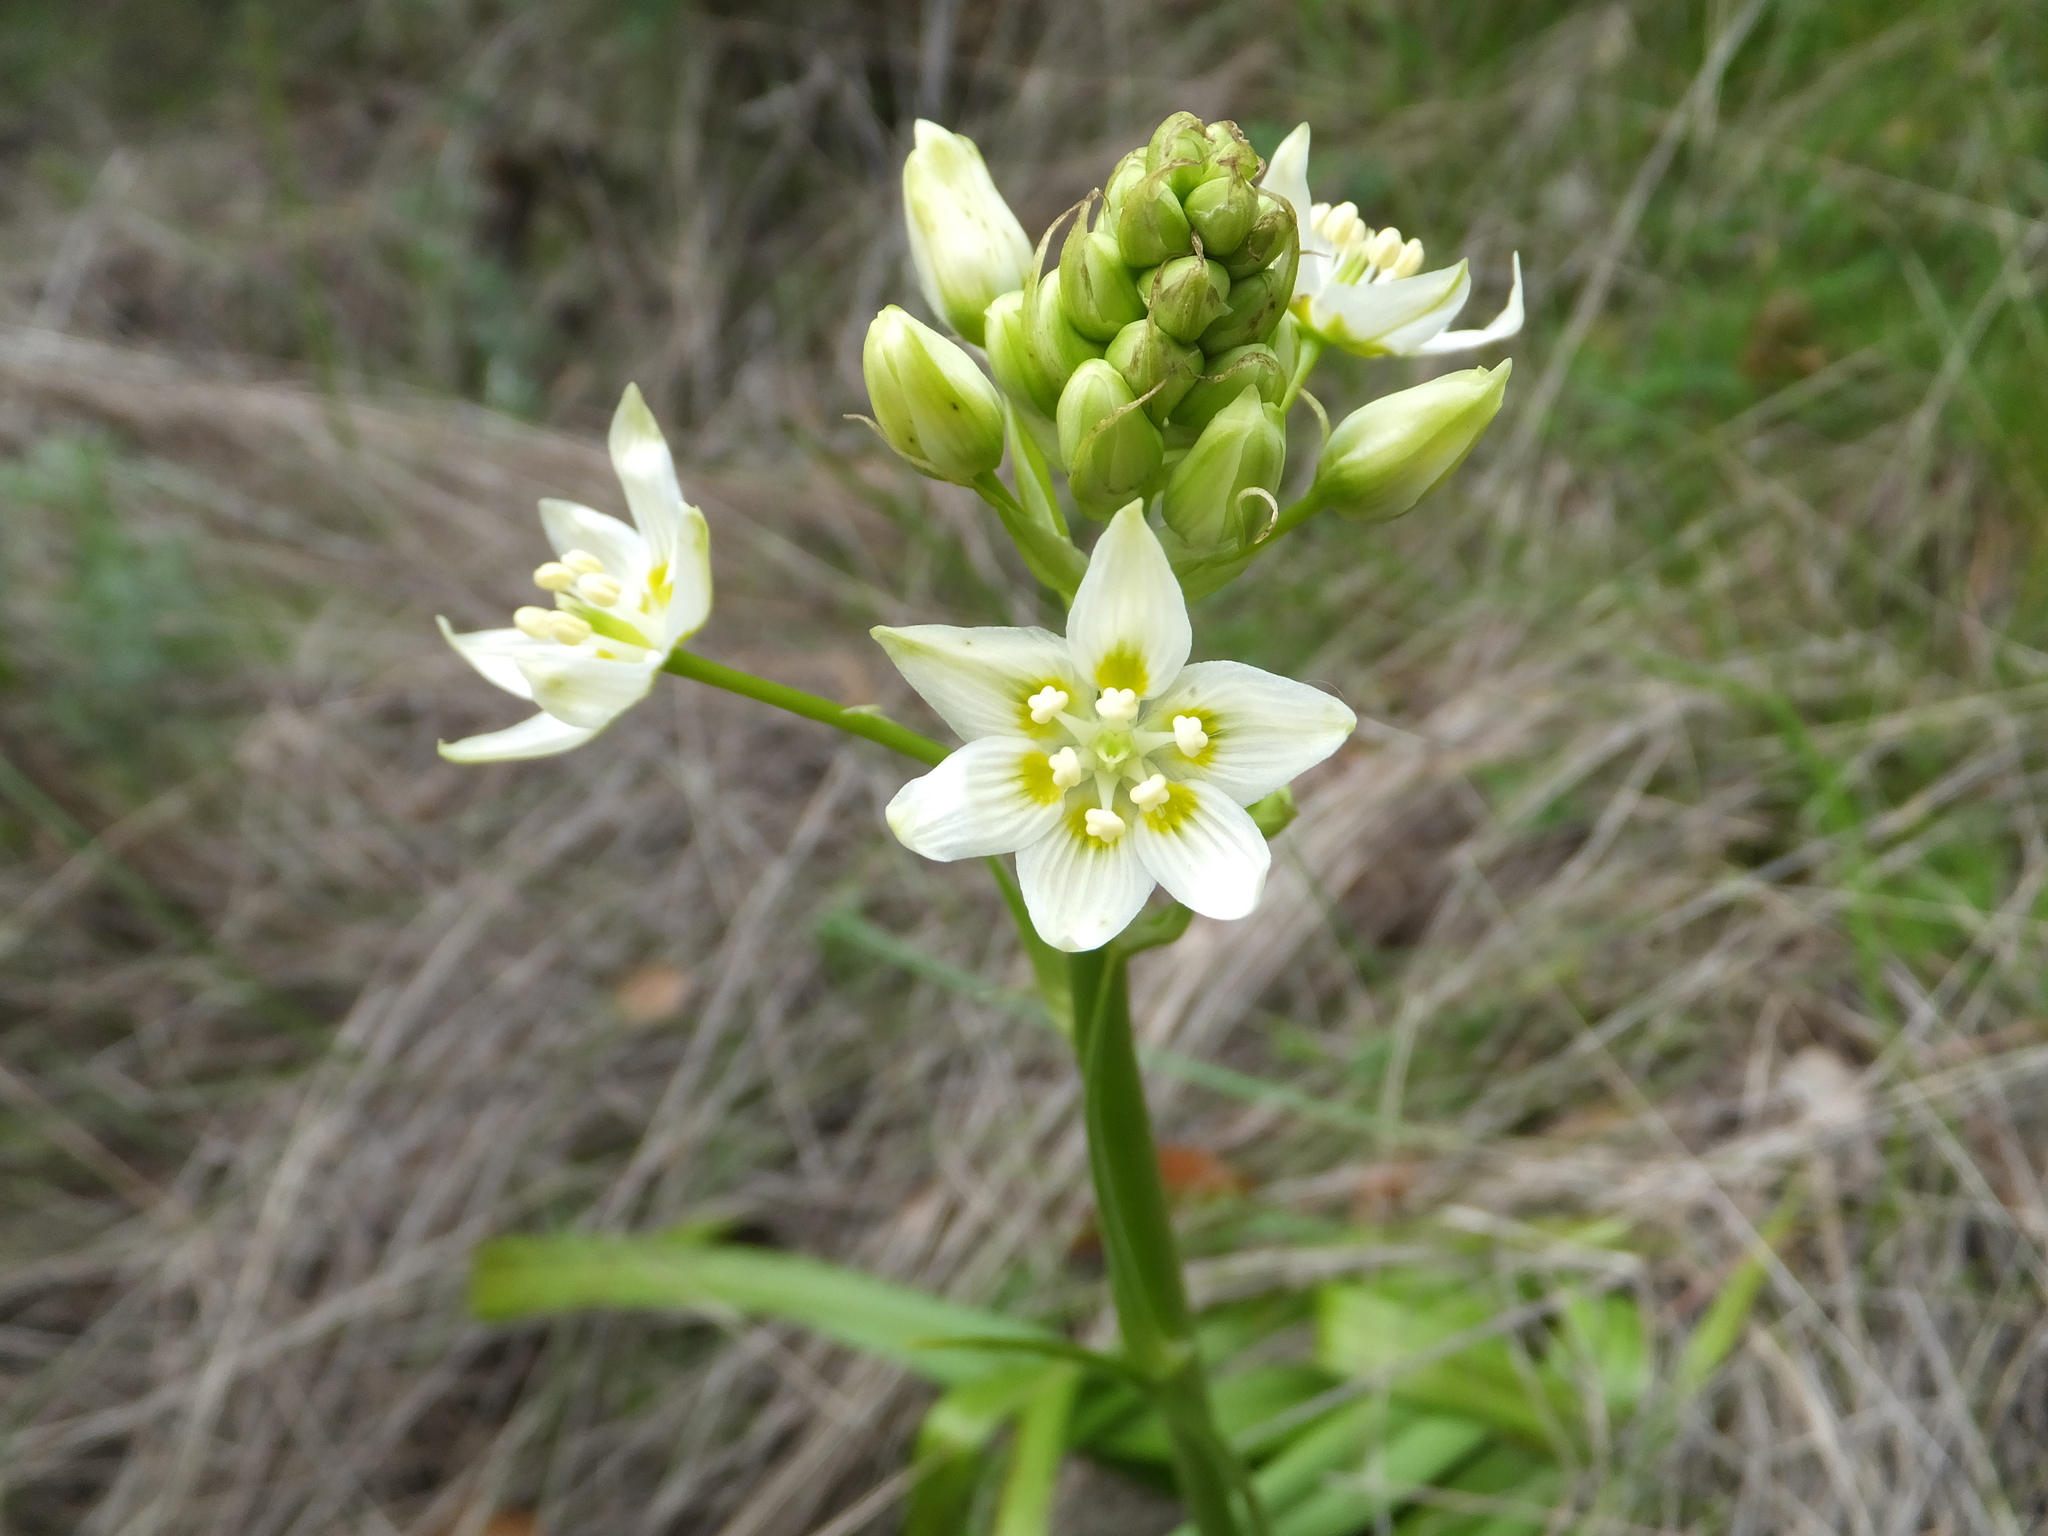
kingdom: Plantae
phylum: Tracheophyta
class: Liliopsida
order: Liliales
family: Melanthiaceae
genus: Toxicoscordion
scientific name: Toxicoscordion fremontii
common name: Fremont's death camas
